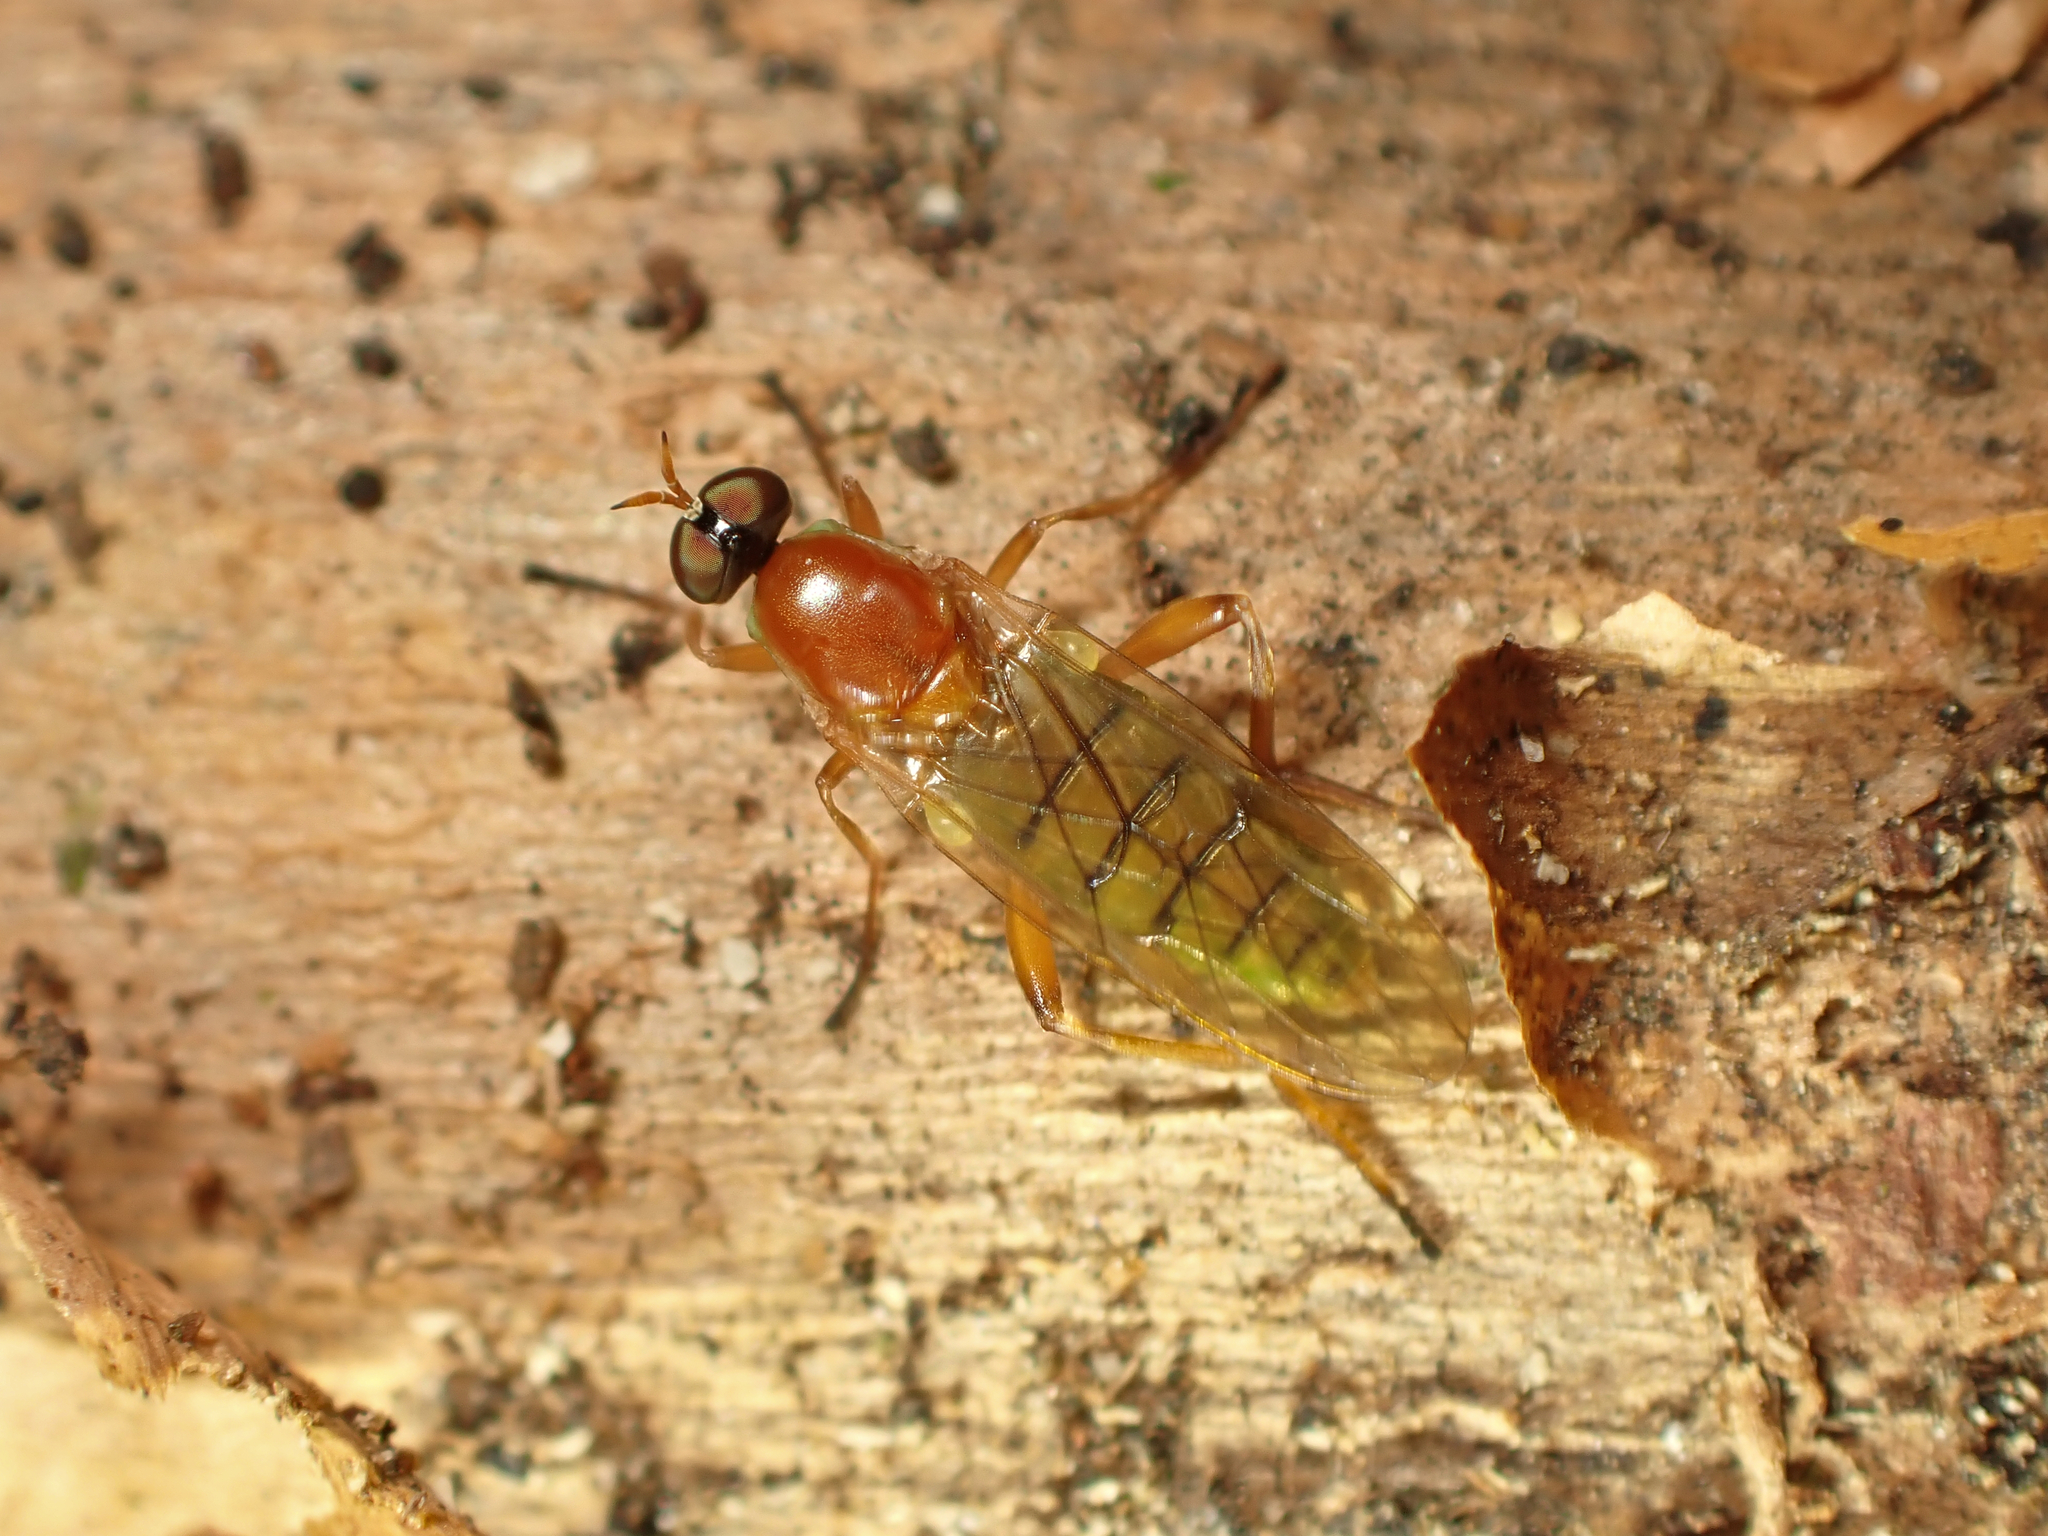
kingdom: Animalia
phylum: Arthropoda
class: Insecta
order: Diptera
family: Stratiomyidae
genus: Australoberis
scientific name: Australoberis refugians
